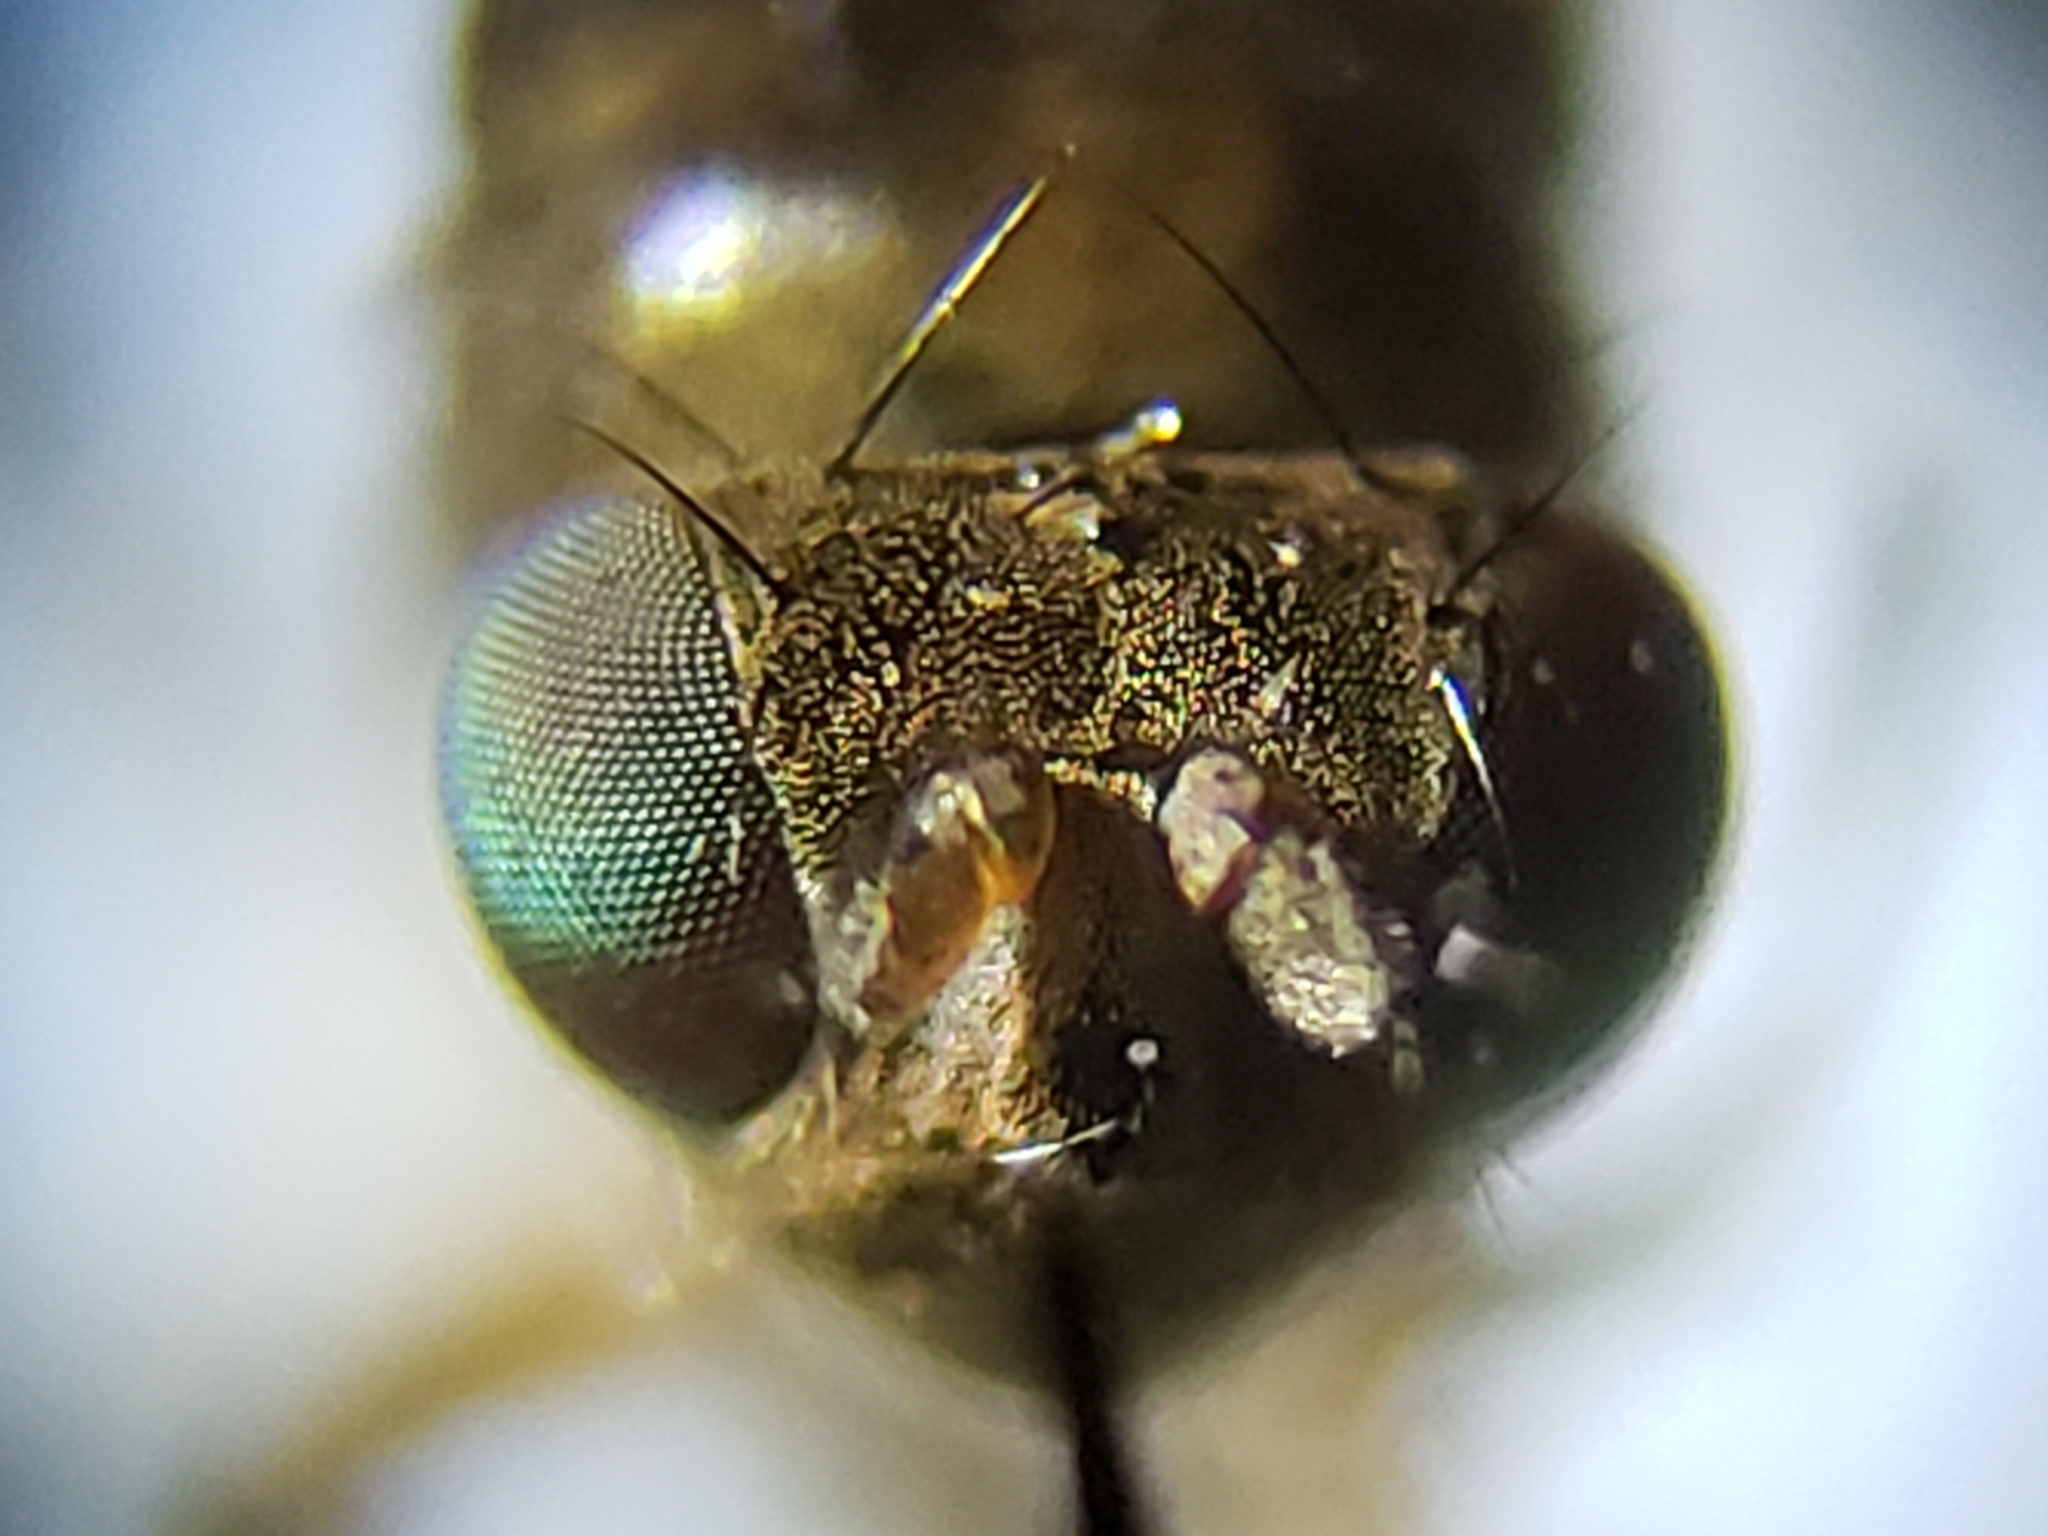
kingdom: Animalia
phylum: Arthropoda
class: Insecta
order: Diptera
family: Ephydridae
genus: Zeros
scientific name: Zeros flavipes
